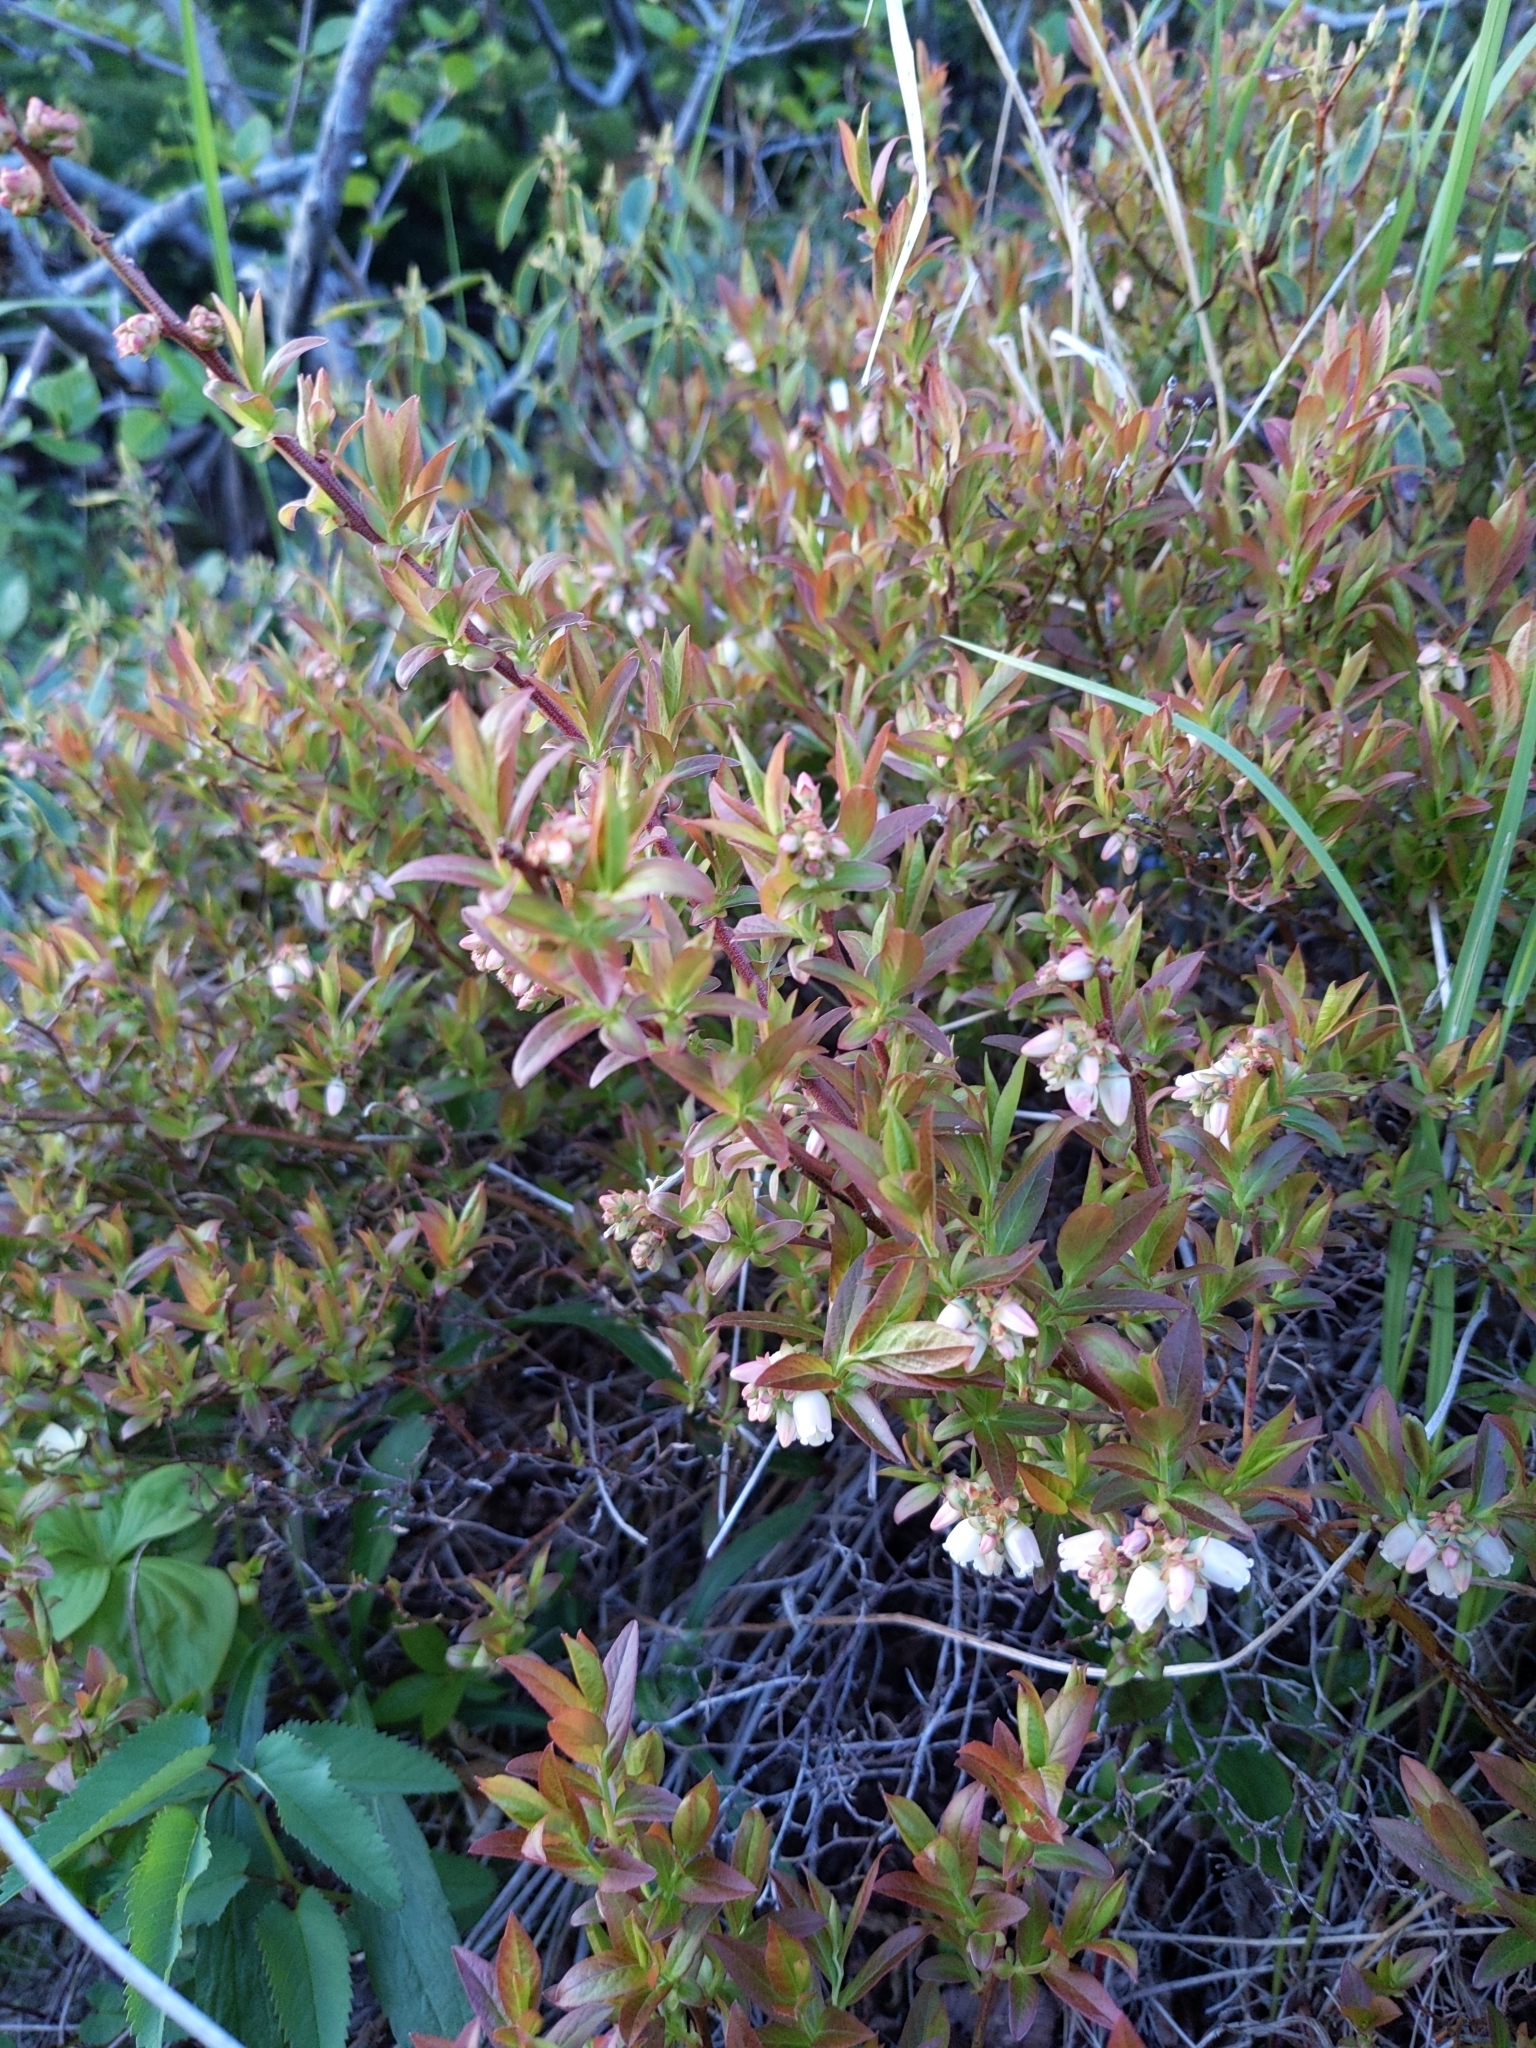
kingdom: Plantae
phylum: Tracheophyta
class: Magnoliopsida
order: Ericales
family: Ericaceae
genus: Vaccinium
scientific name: Vaccinium angustifolium
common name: Early lowbush blueberry
